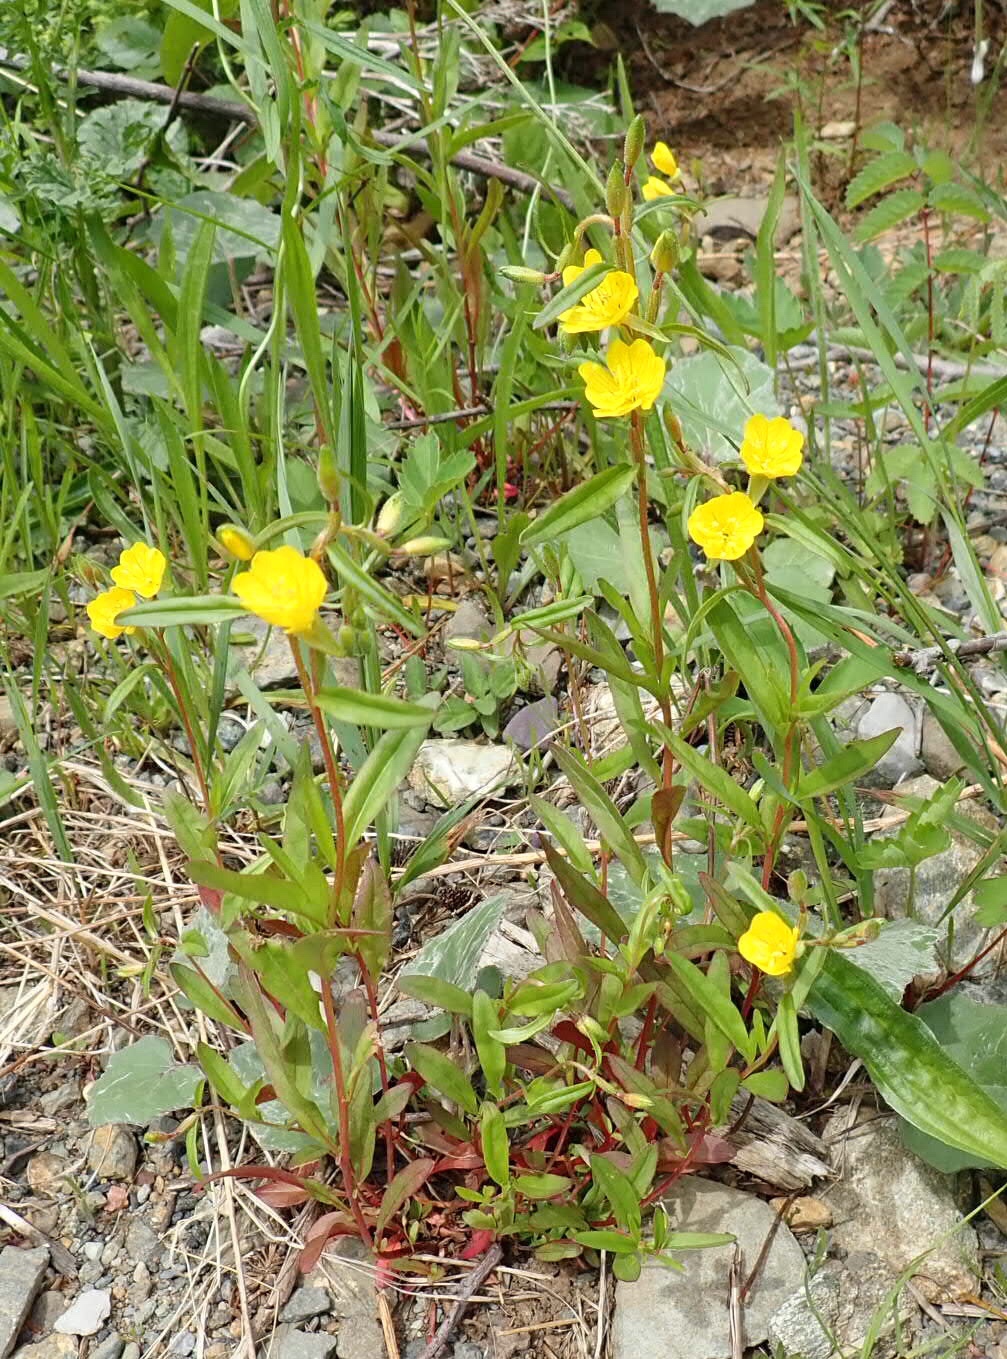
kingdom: Plantae
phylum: Tracheophyta
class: Magnoliopsida
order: Myrtales
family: Onagraceae
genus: Oenothera
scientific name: Oenothera oakesiana
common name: Oakes' evening-primrose
